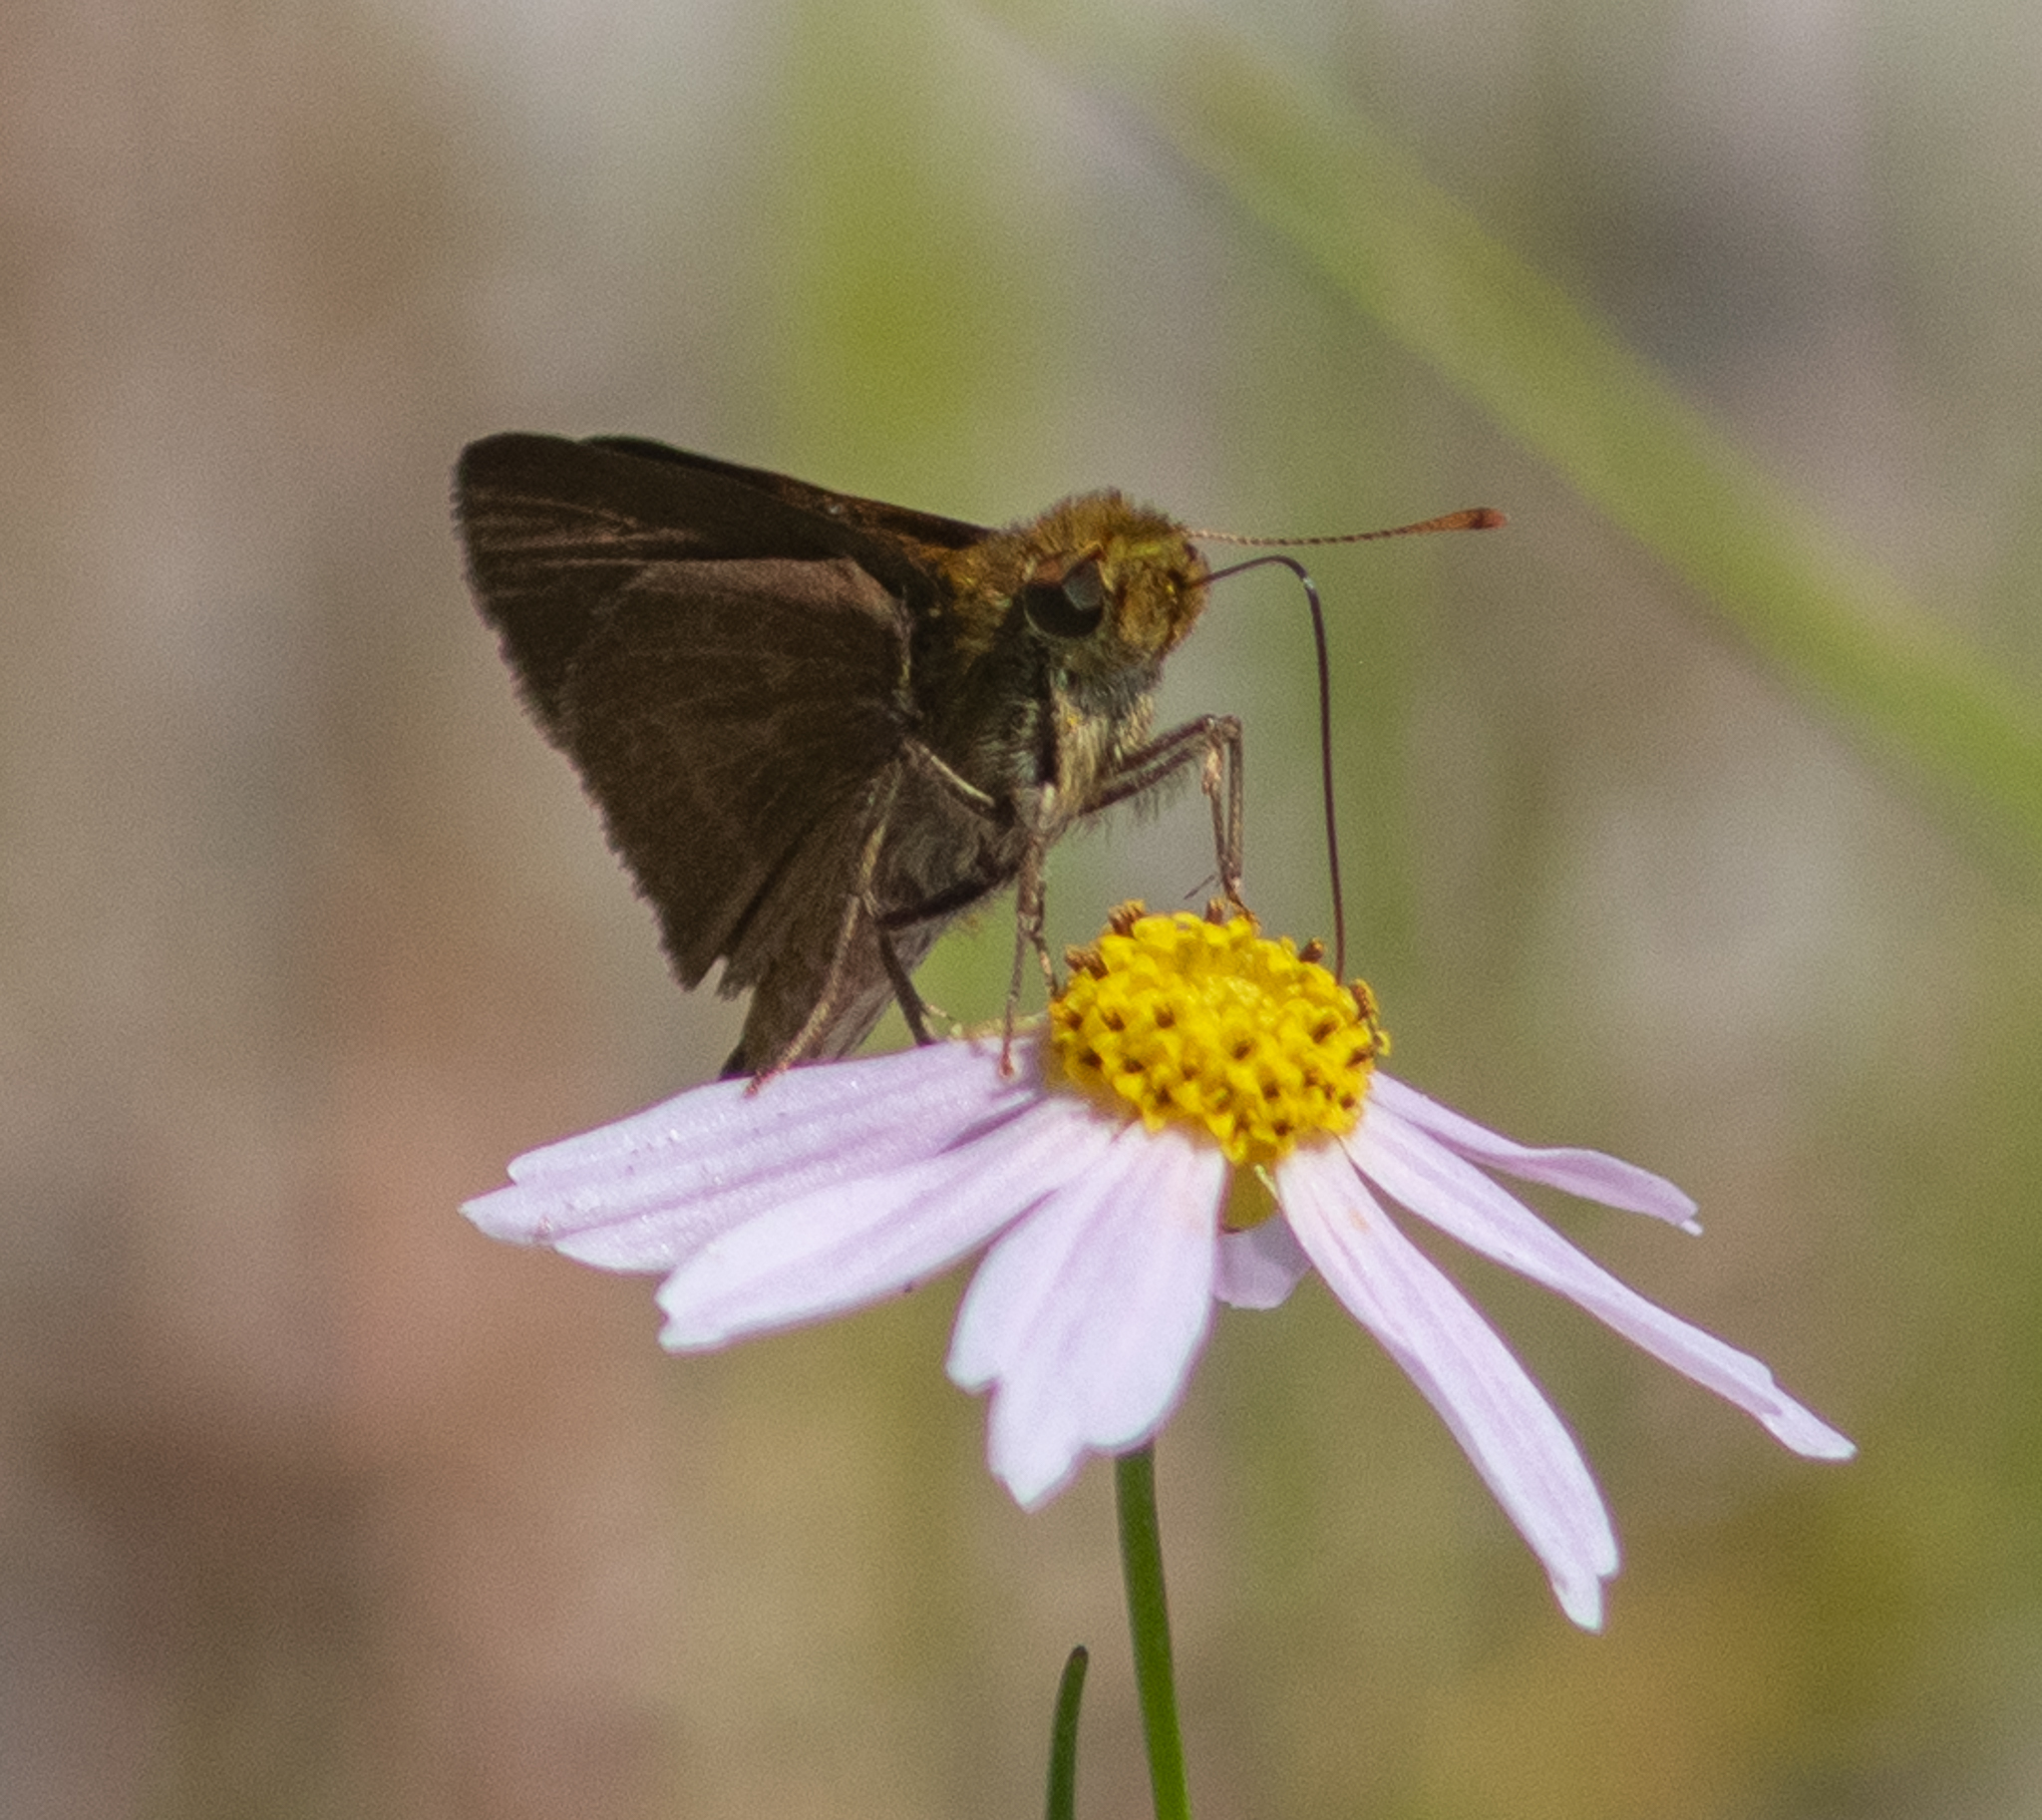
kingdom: Animalia
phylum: Arthropoda
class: Insecta
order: Lepidoptera
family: Hesperiidae
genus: Euphyes
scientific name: Euphyes vestris
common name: Dun skipper
